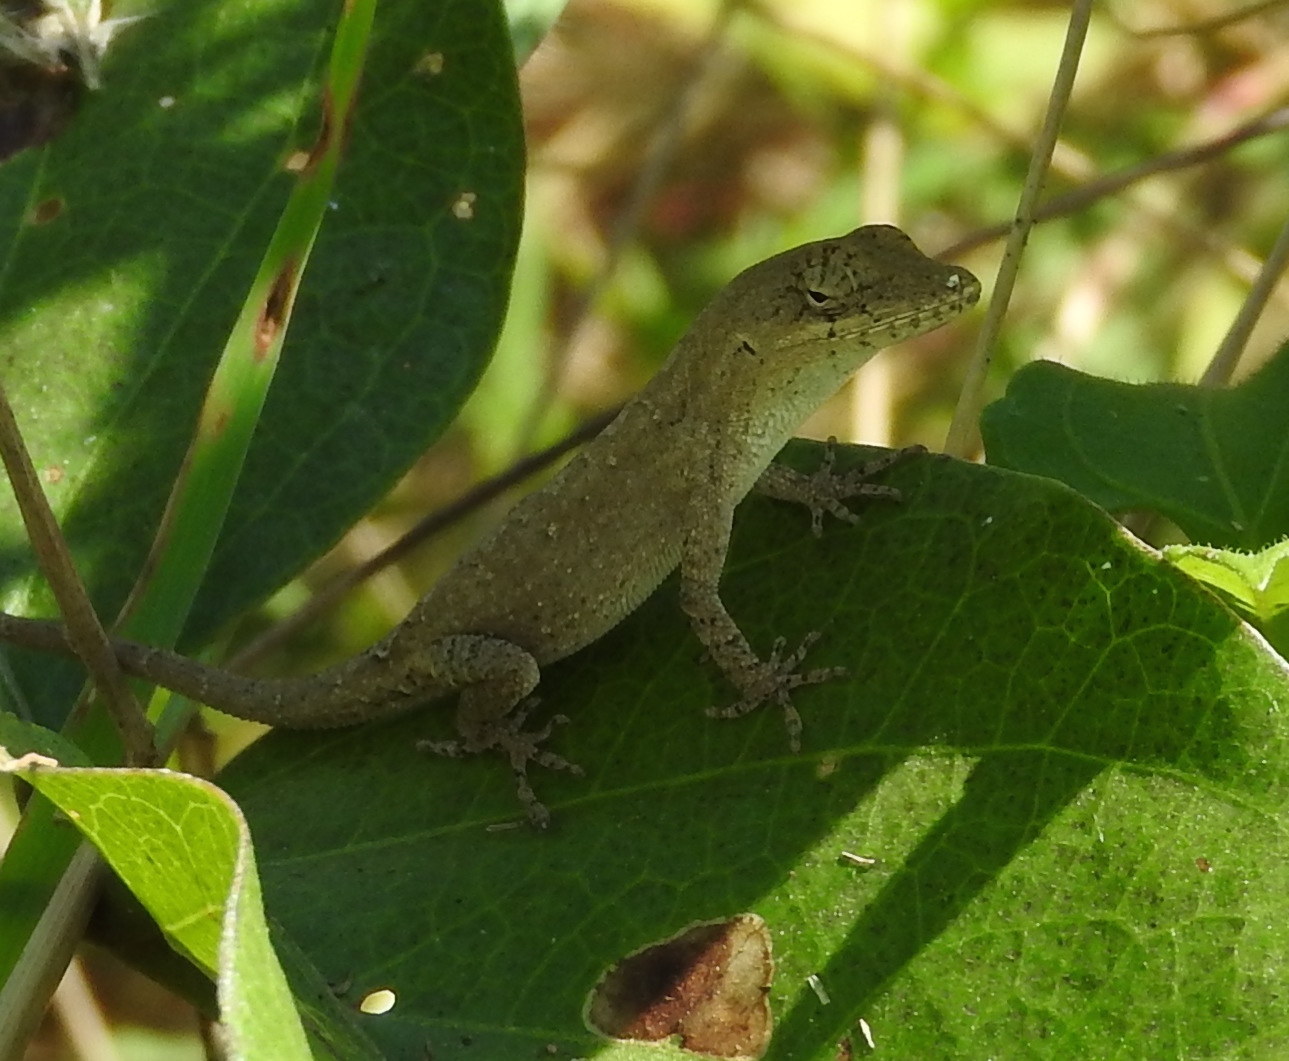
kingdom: Animalia
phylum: Chordata
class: Squamata
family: Dactyloidae
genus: Anolis
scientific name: Anolis nebulosus
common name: Clouded anole
